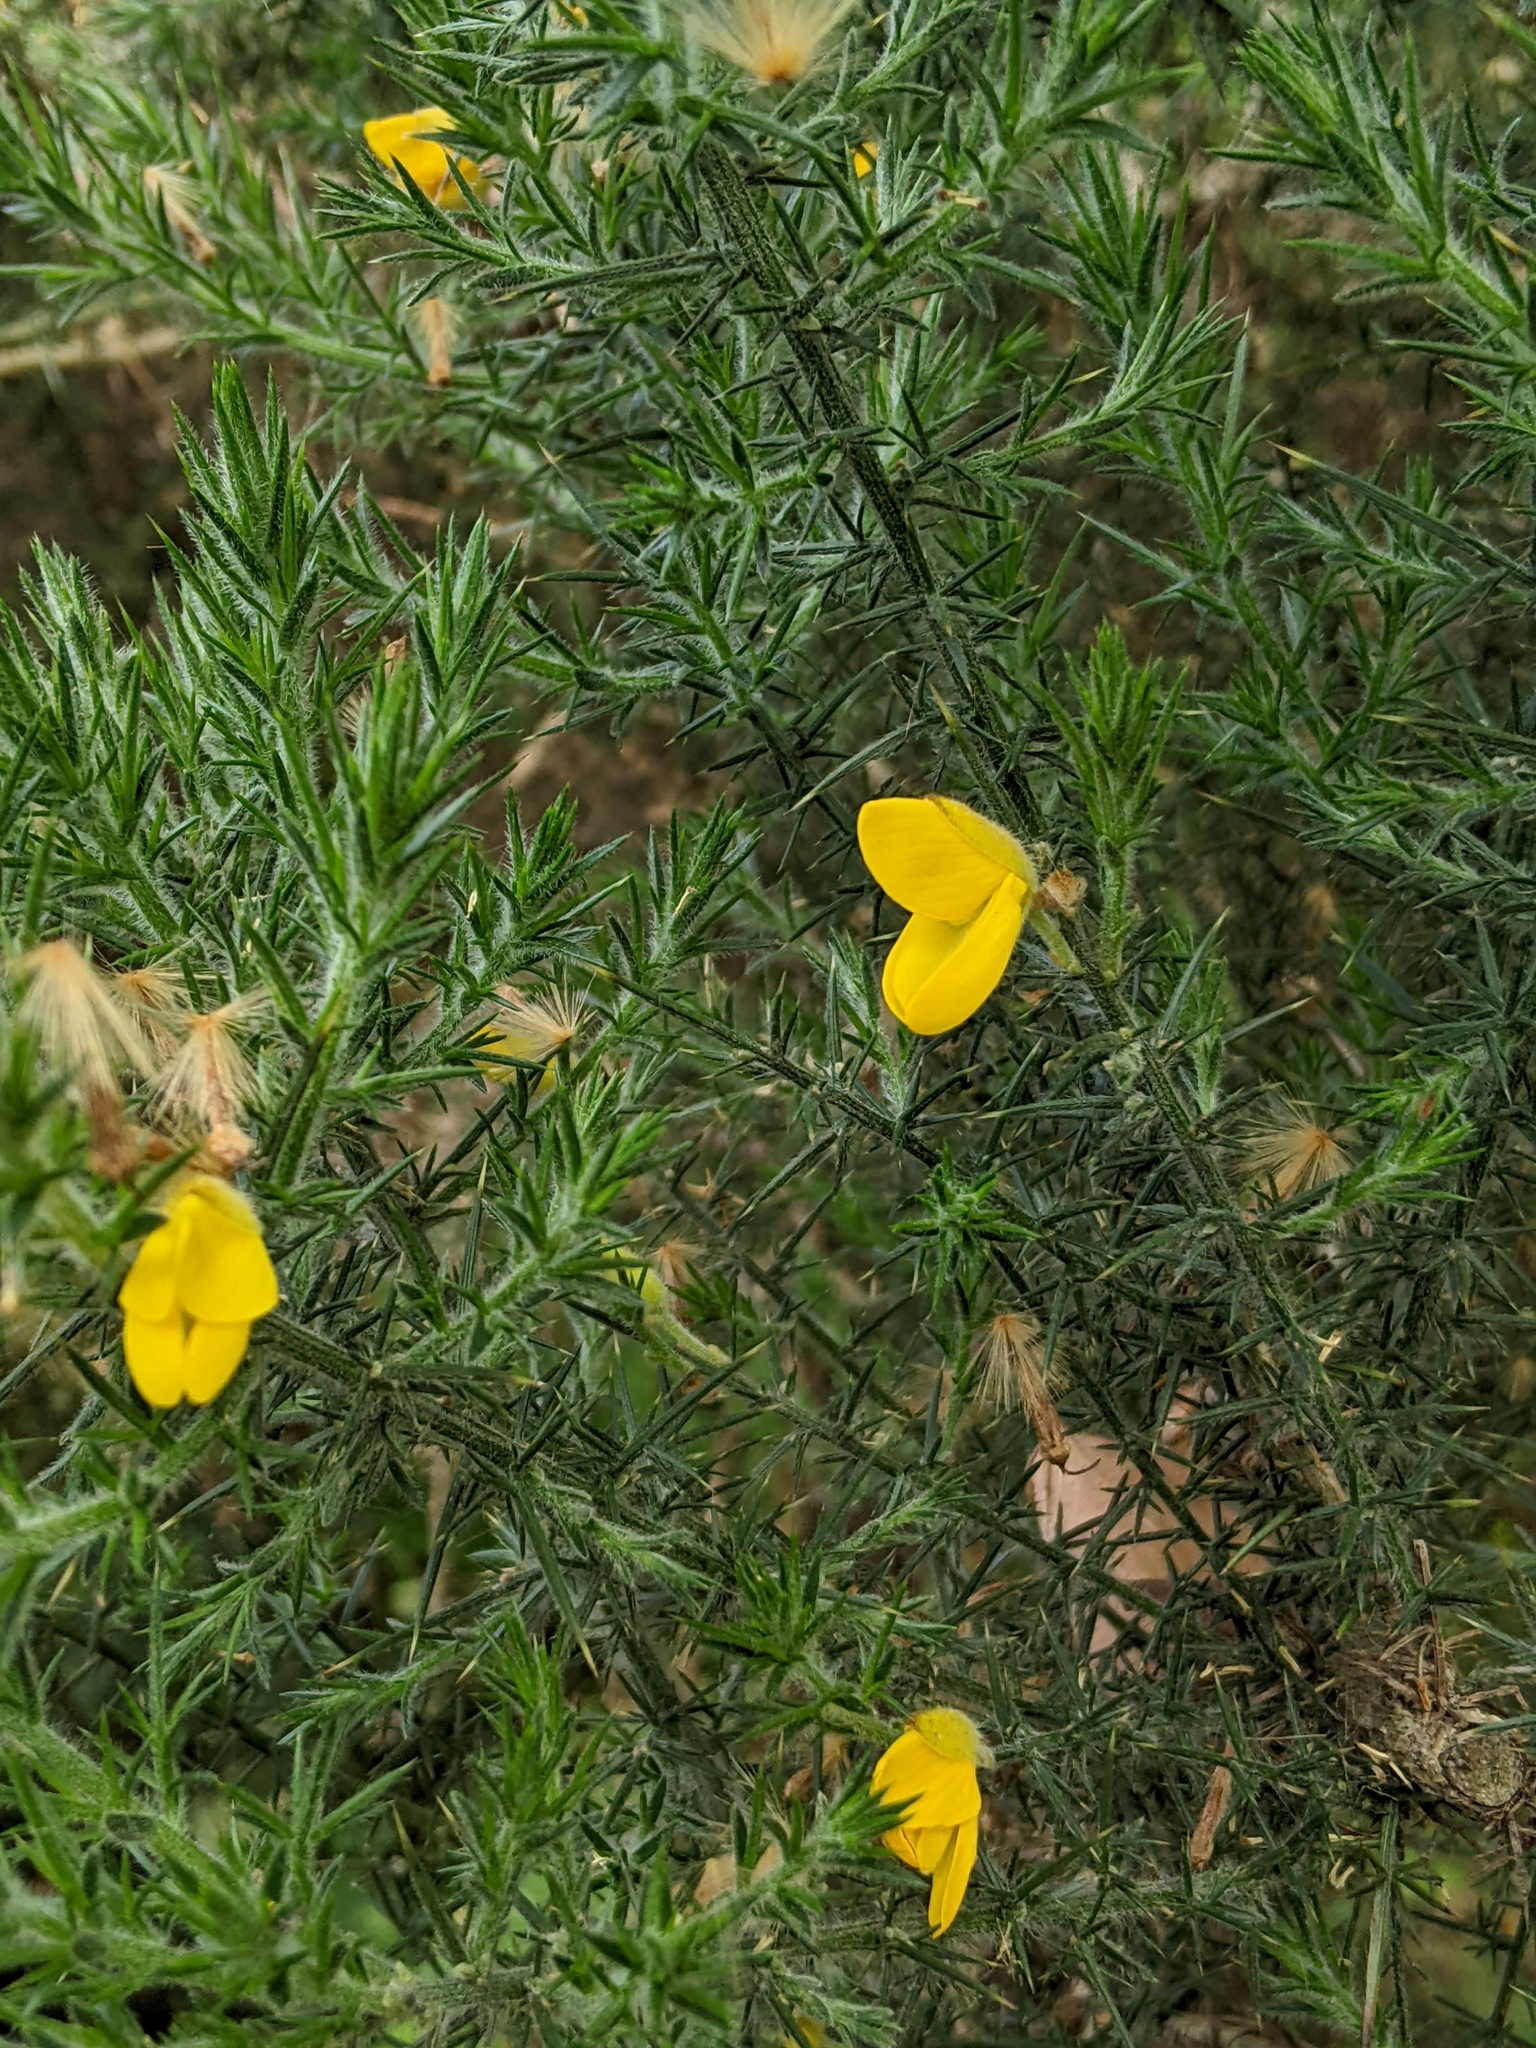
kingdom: Plantae
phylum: Tracheophyta
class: Magnoliopsida
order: Fabales
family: Fabaceae
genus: Ulex
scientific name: Ulex europaeus
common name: Common gorse
